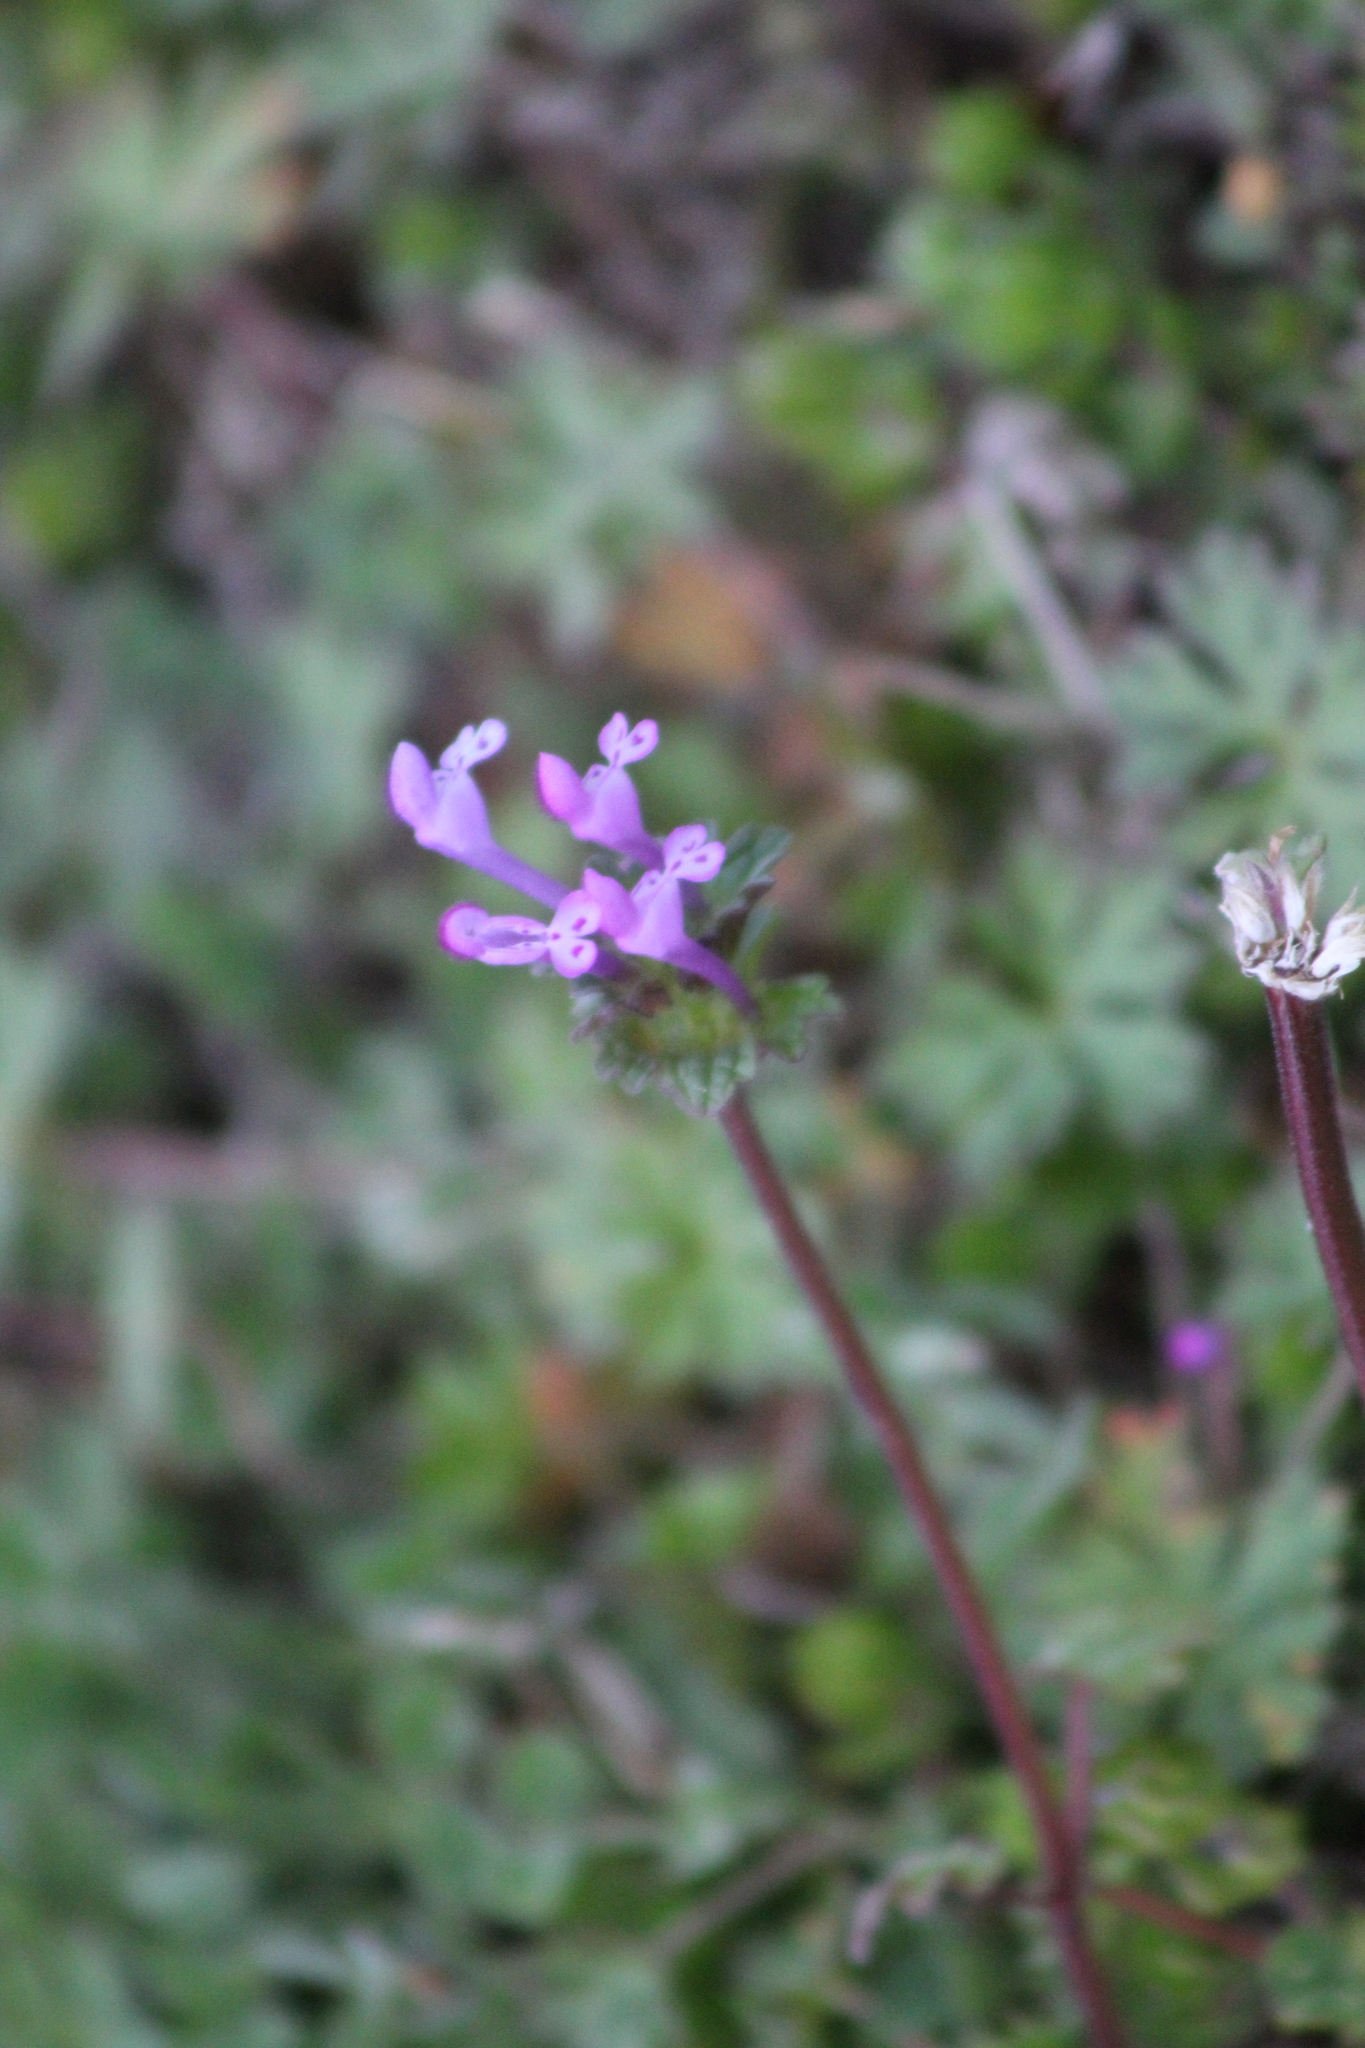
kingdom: Plantae
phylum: Tracheophyta
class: Magnoliopsida
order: Lamiales
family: Lamiaceae
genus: Lamium
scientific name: Lamium amplexicaule
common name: Henbit dead-nettle
